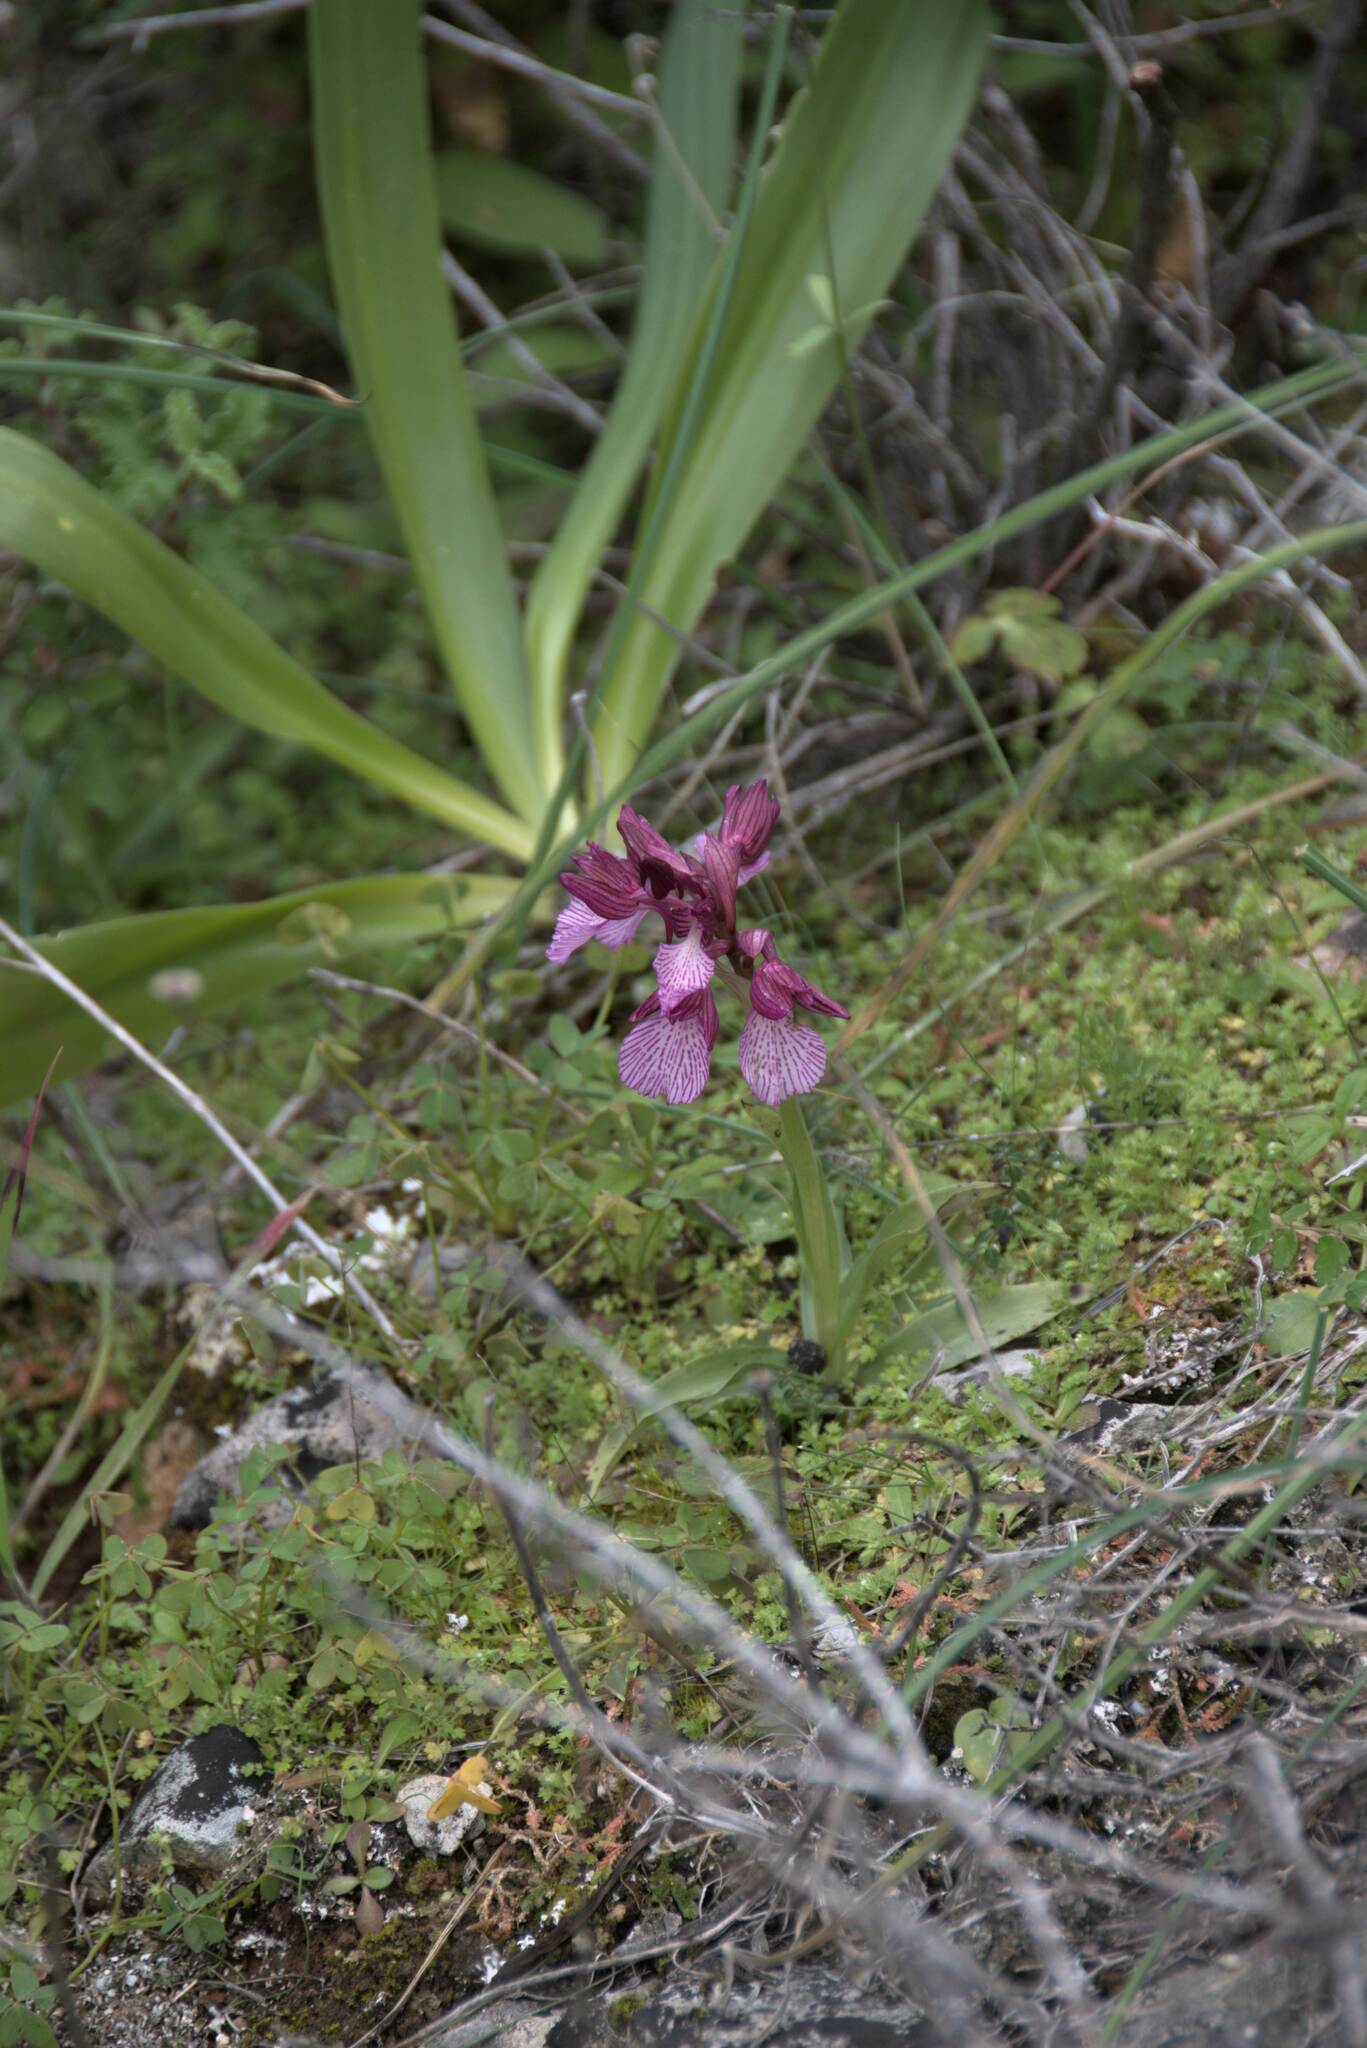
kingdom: Plantae
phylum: Tracheophyta
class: Liliopsida
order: Asparagales
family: Orchidaceae
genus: Anacamptis
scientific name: Anacamptis papilionacea
